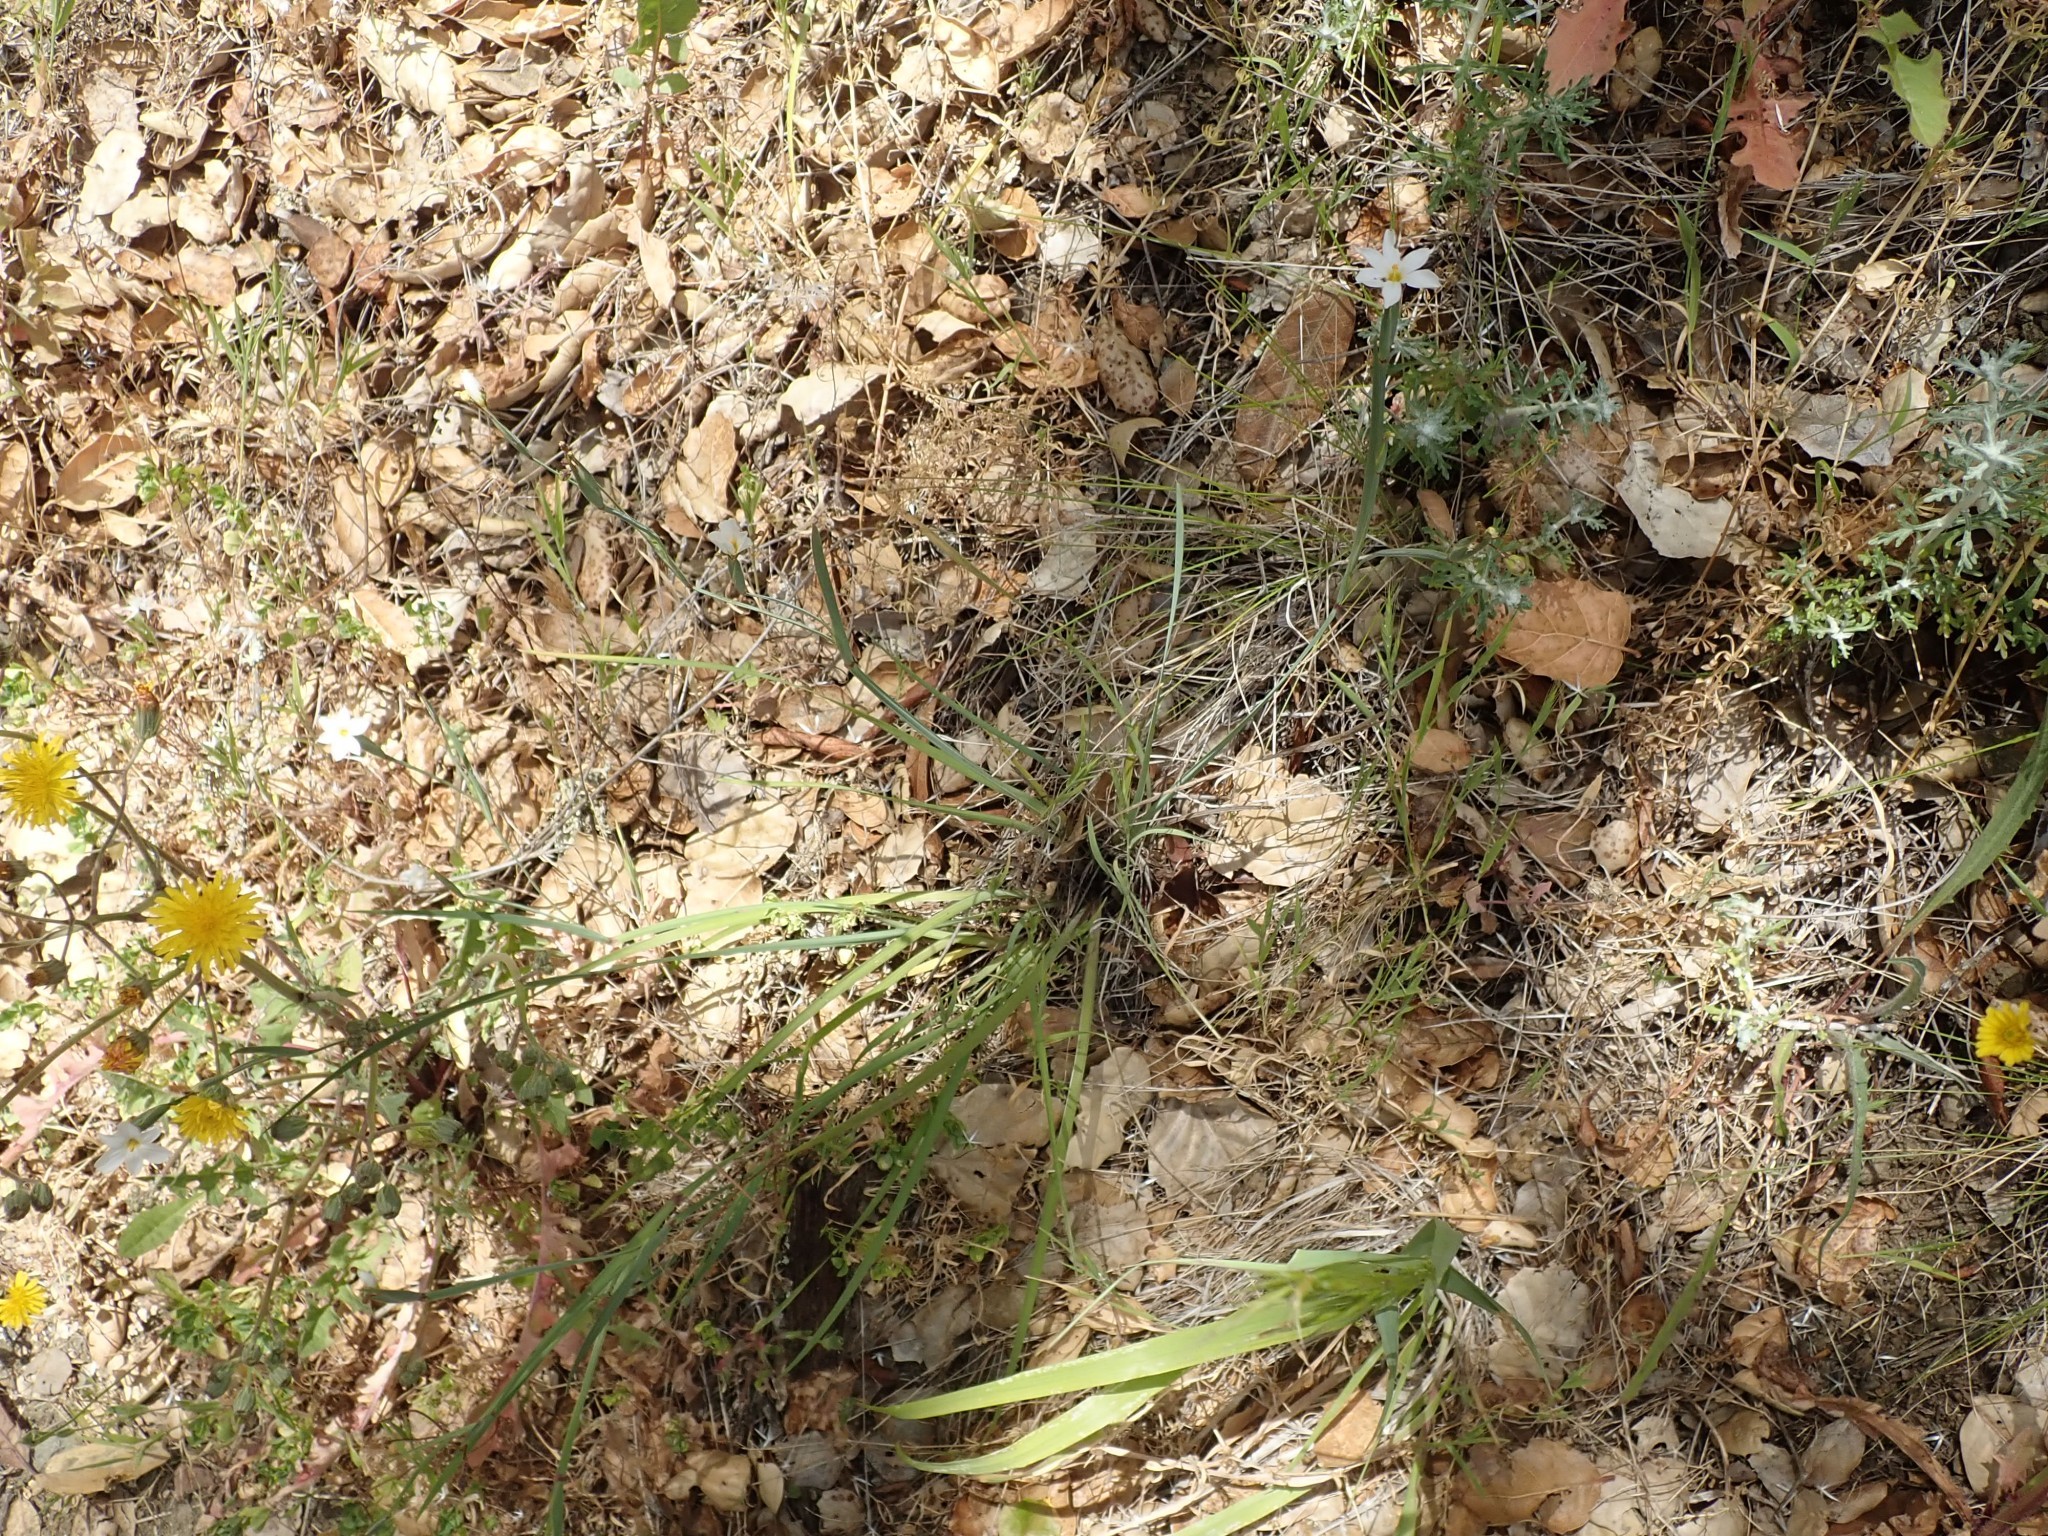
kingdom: Plantae
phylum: Tracheophyta
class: Liliopsida
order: Asparagales
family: Iridaceae
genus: Sisyrinchium
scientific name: Sisyrinchium bellum
